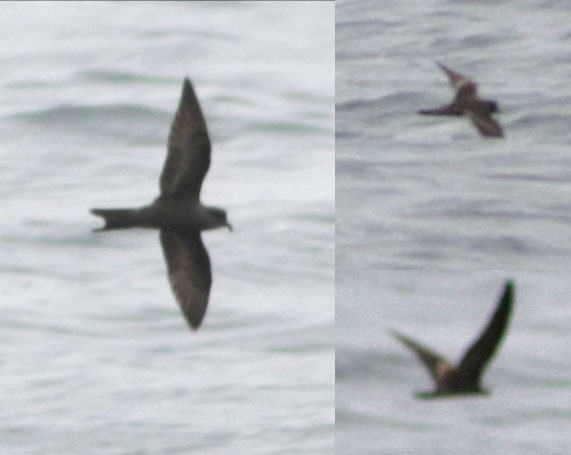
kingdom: Animalia
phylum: Chordata
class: Aves
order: Procellariiformes
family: Hydrobatidae
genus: Oceanodroma
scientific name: Oceanodroma leucorhoa
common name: Leach's storm-petrel
